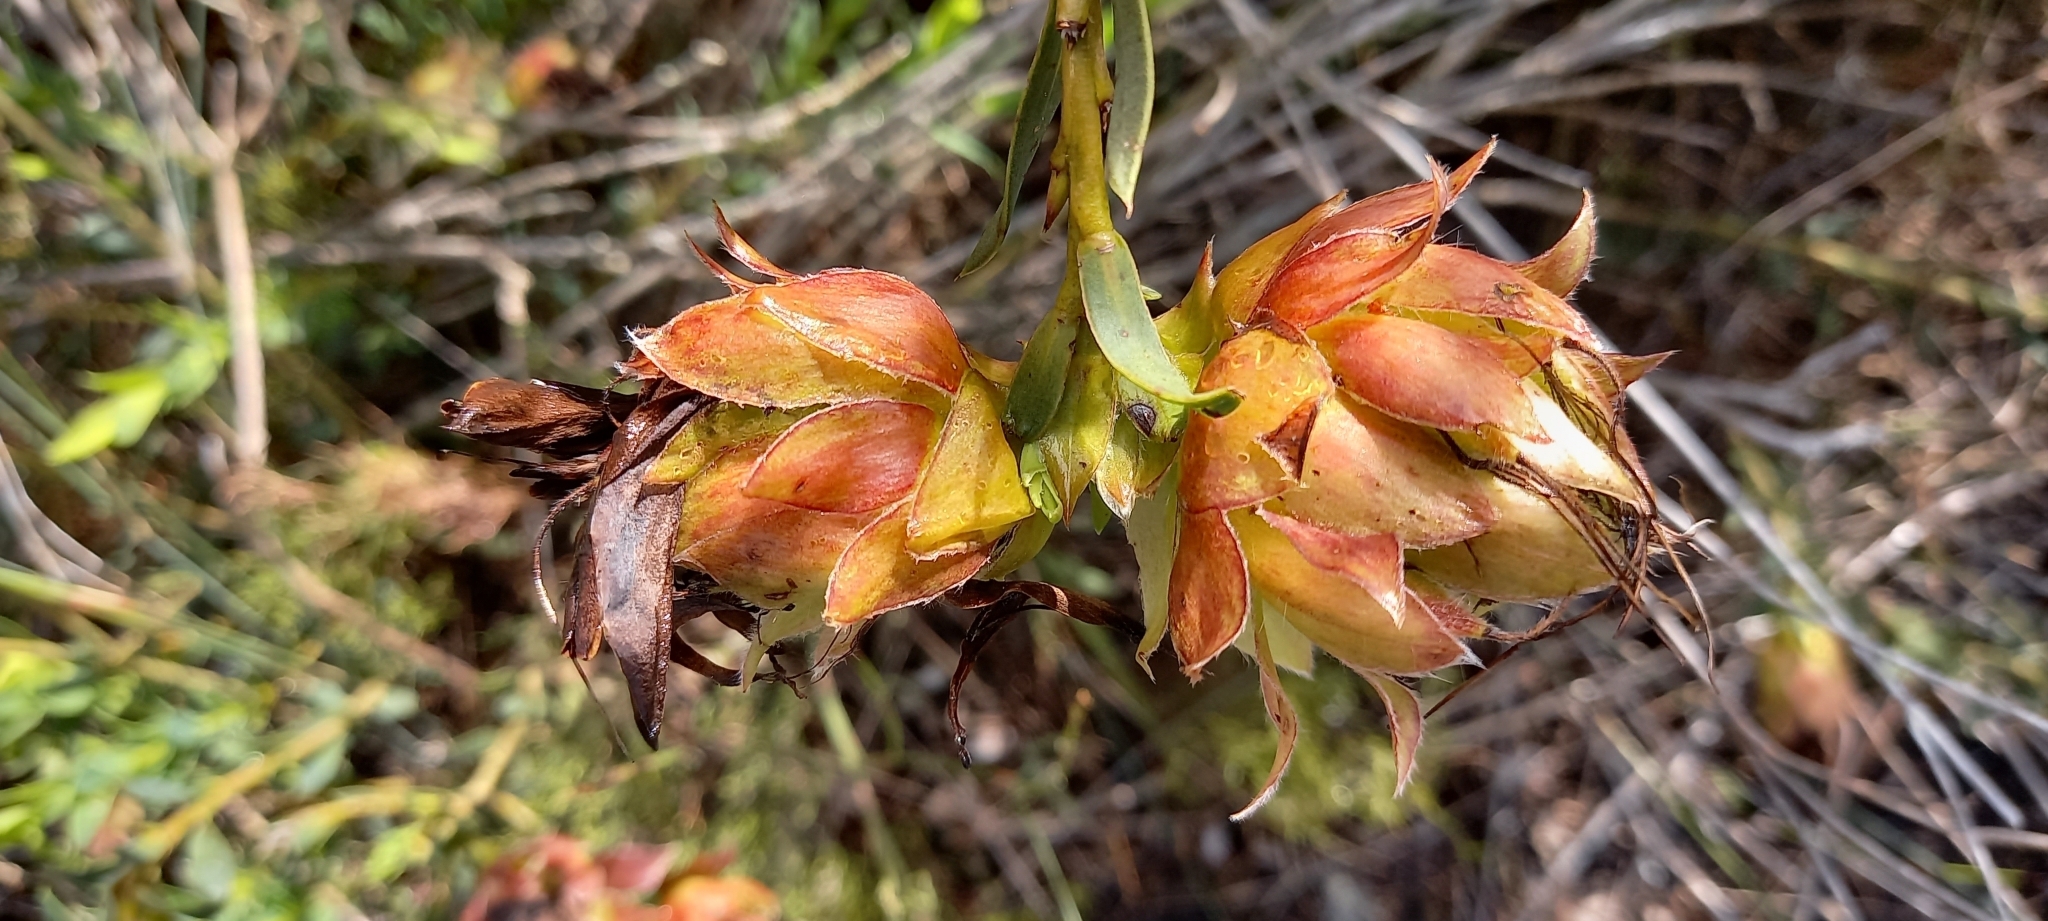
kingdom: Plantae
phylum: Tracheophyta
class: Magnoliopsida
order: Fabales
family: Fabaceae
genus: Liparia
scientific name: Liparia splendens
